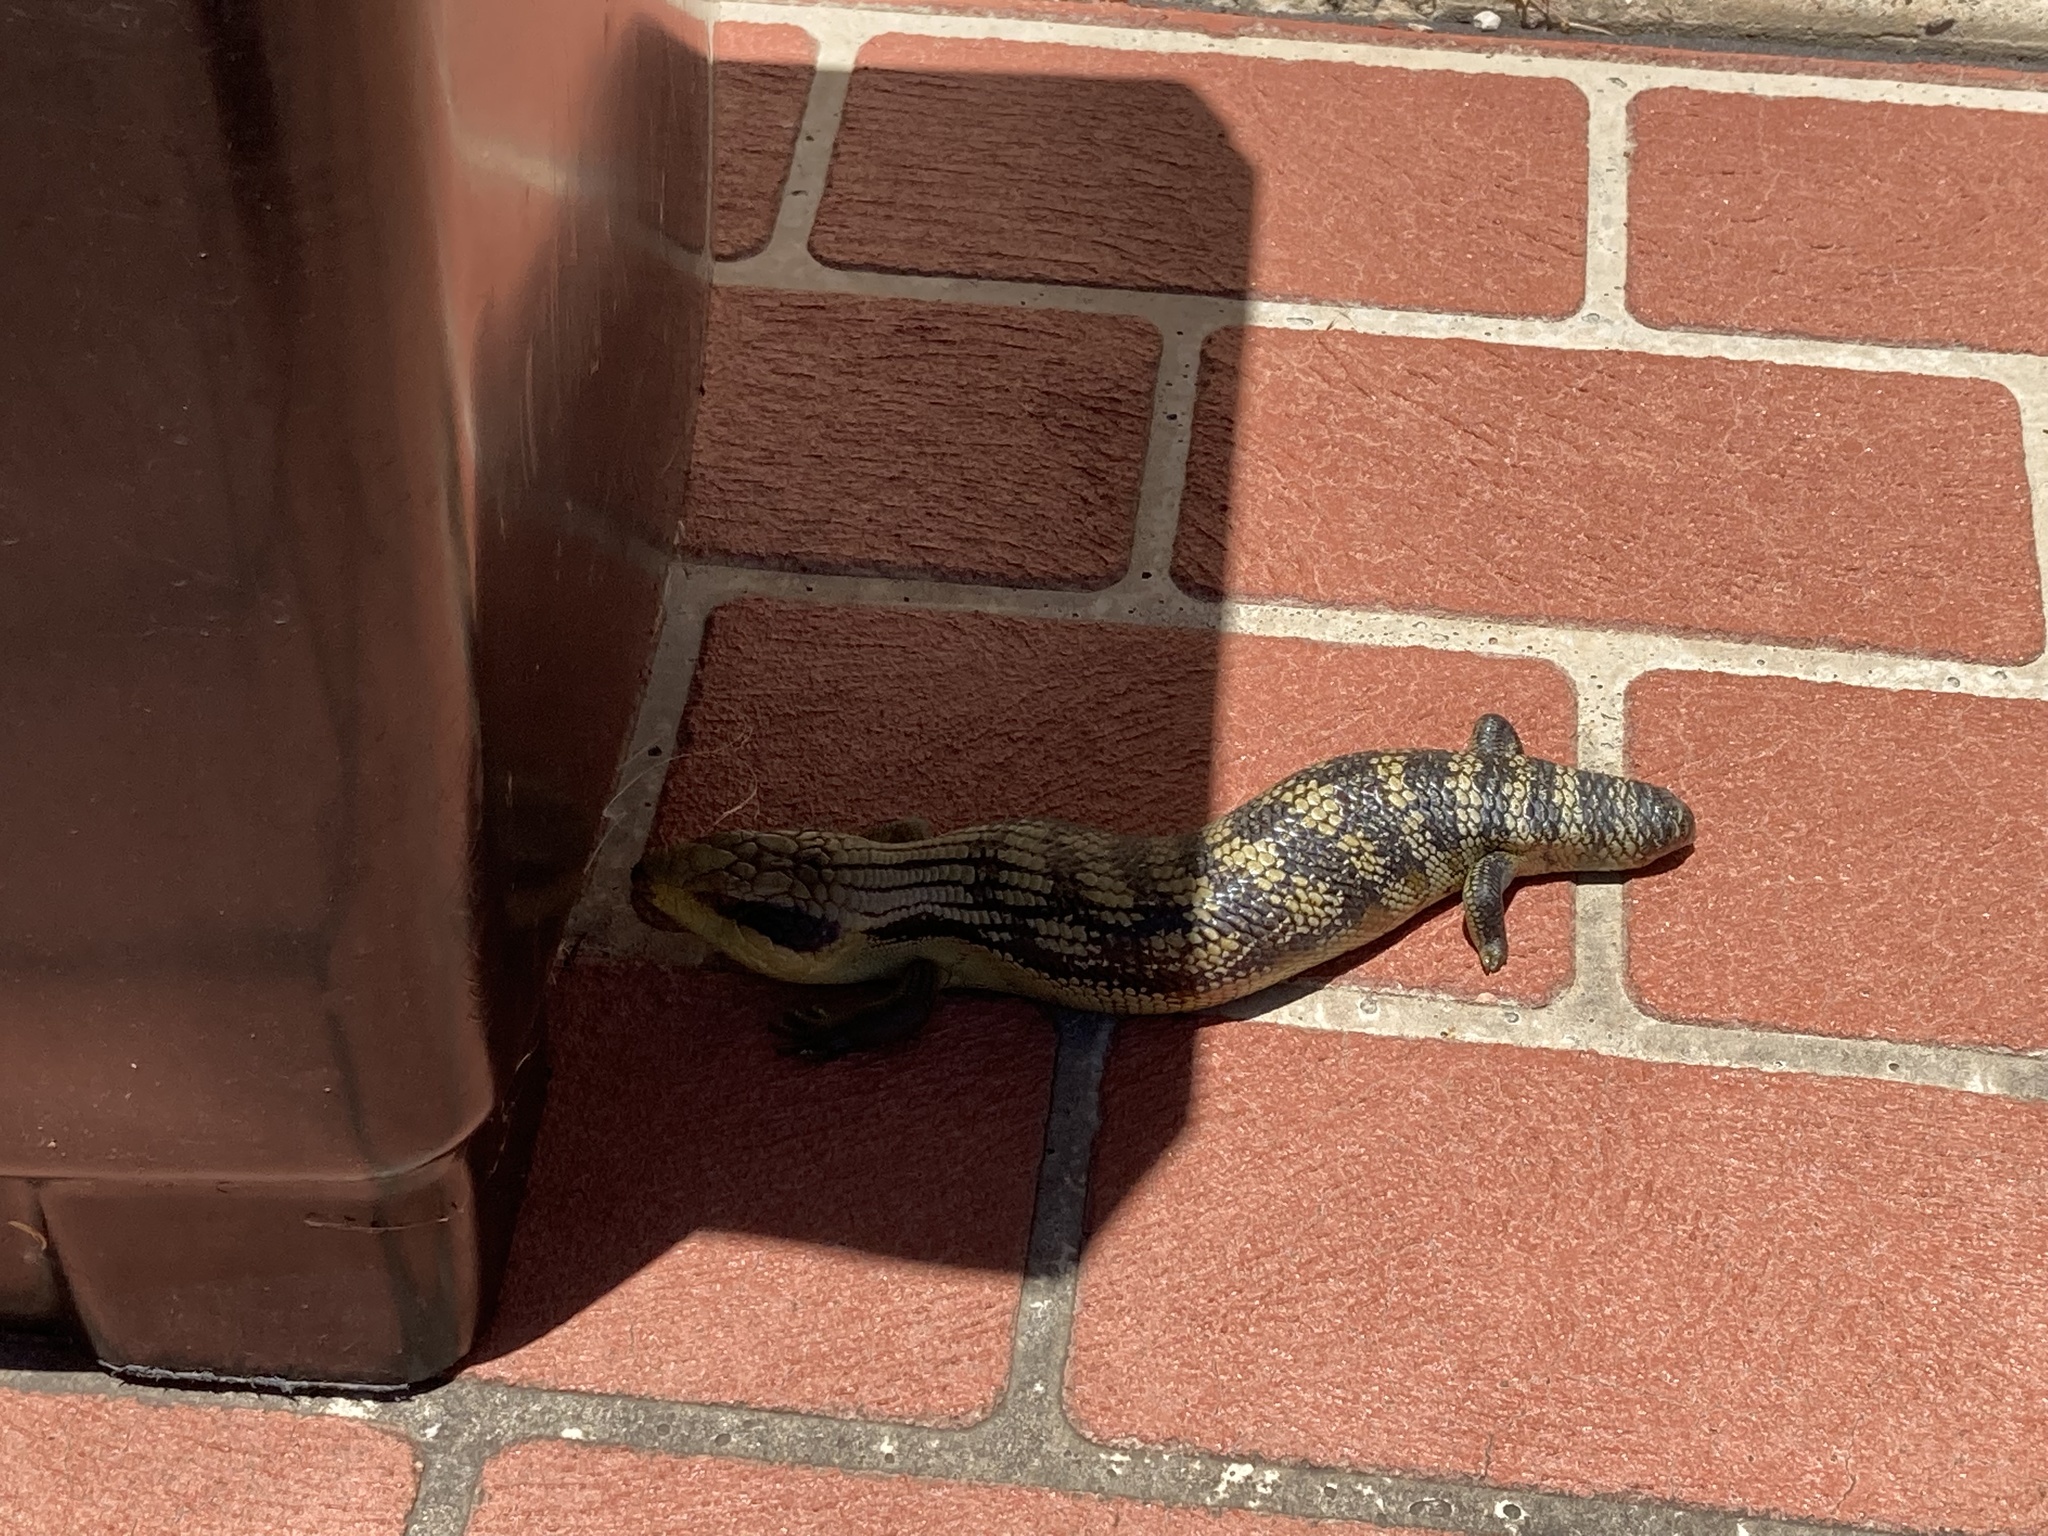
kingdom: Animalia
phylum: Chordata
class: Squamata
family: Scincidae
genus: Tiliqua
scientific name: Tiliqua scincoides
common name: Common bluetongue
